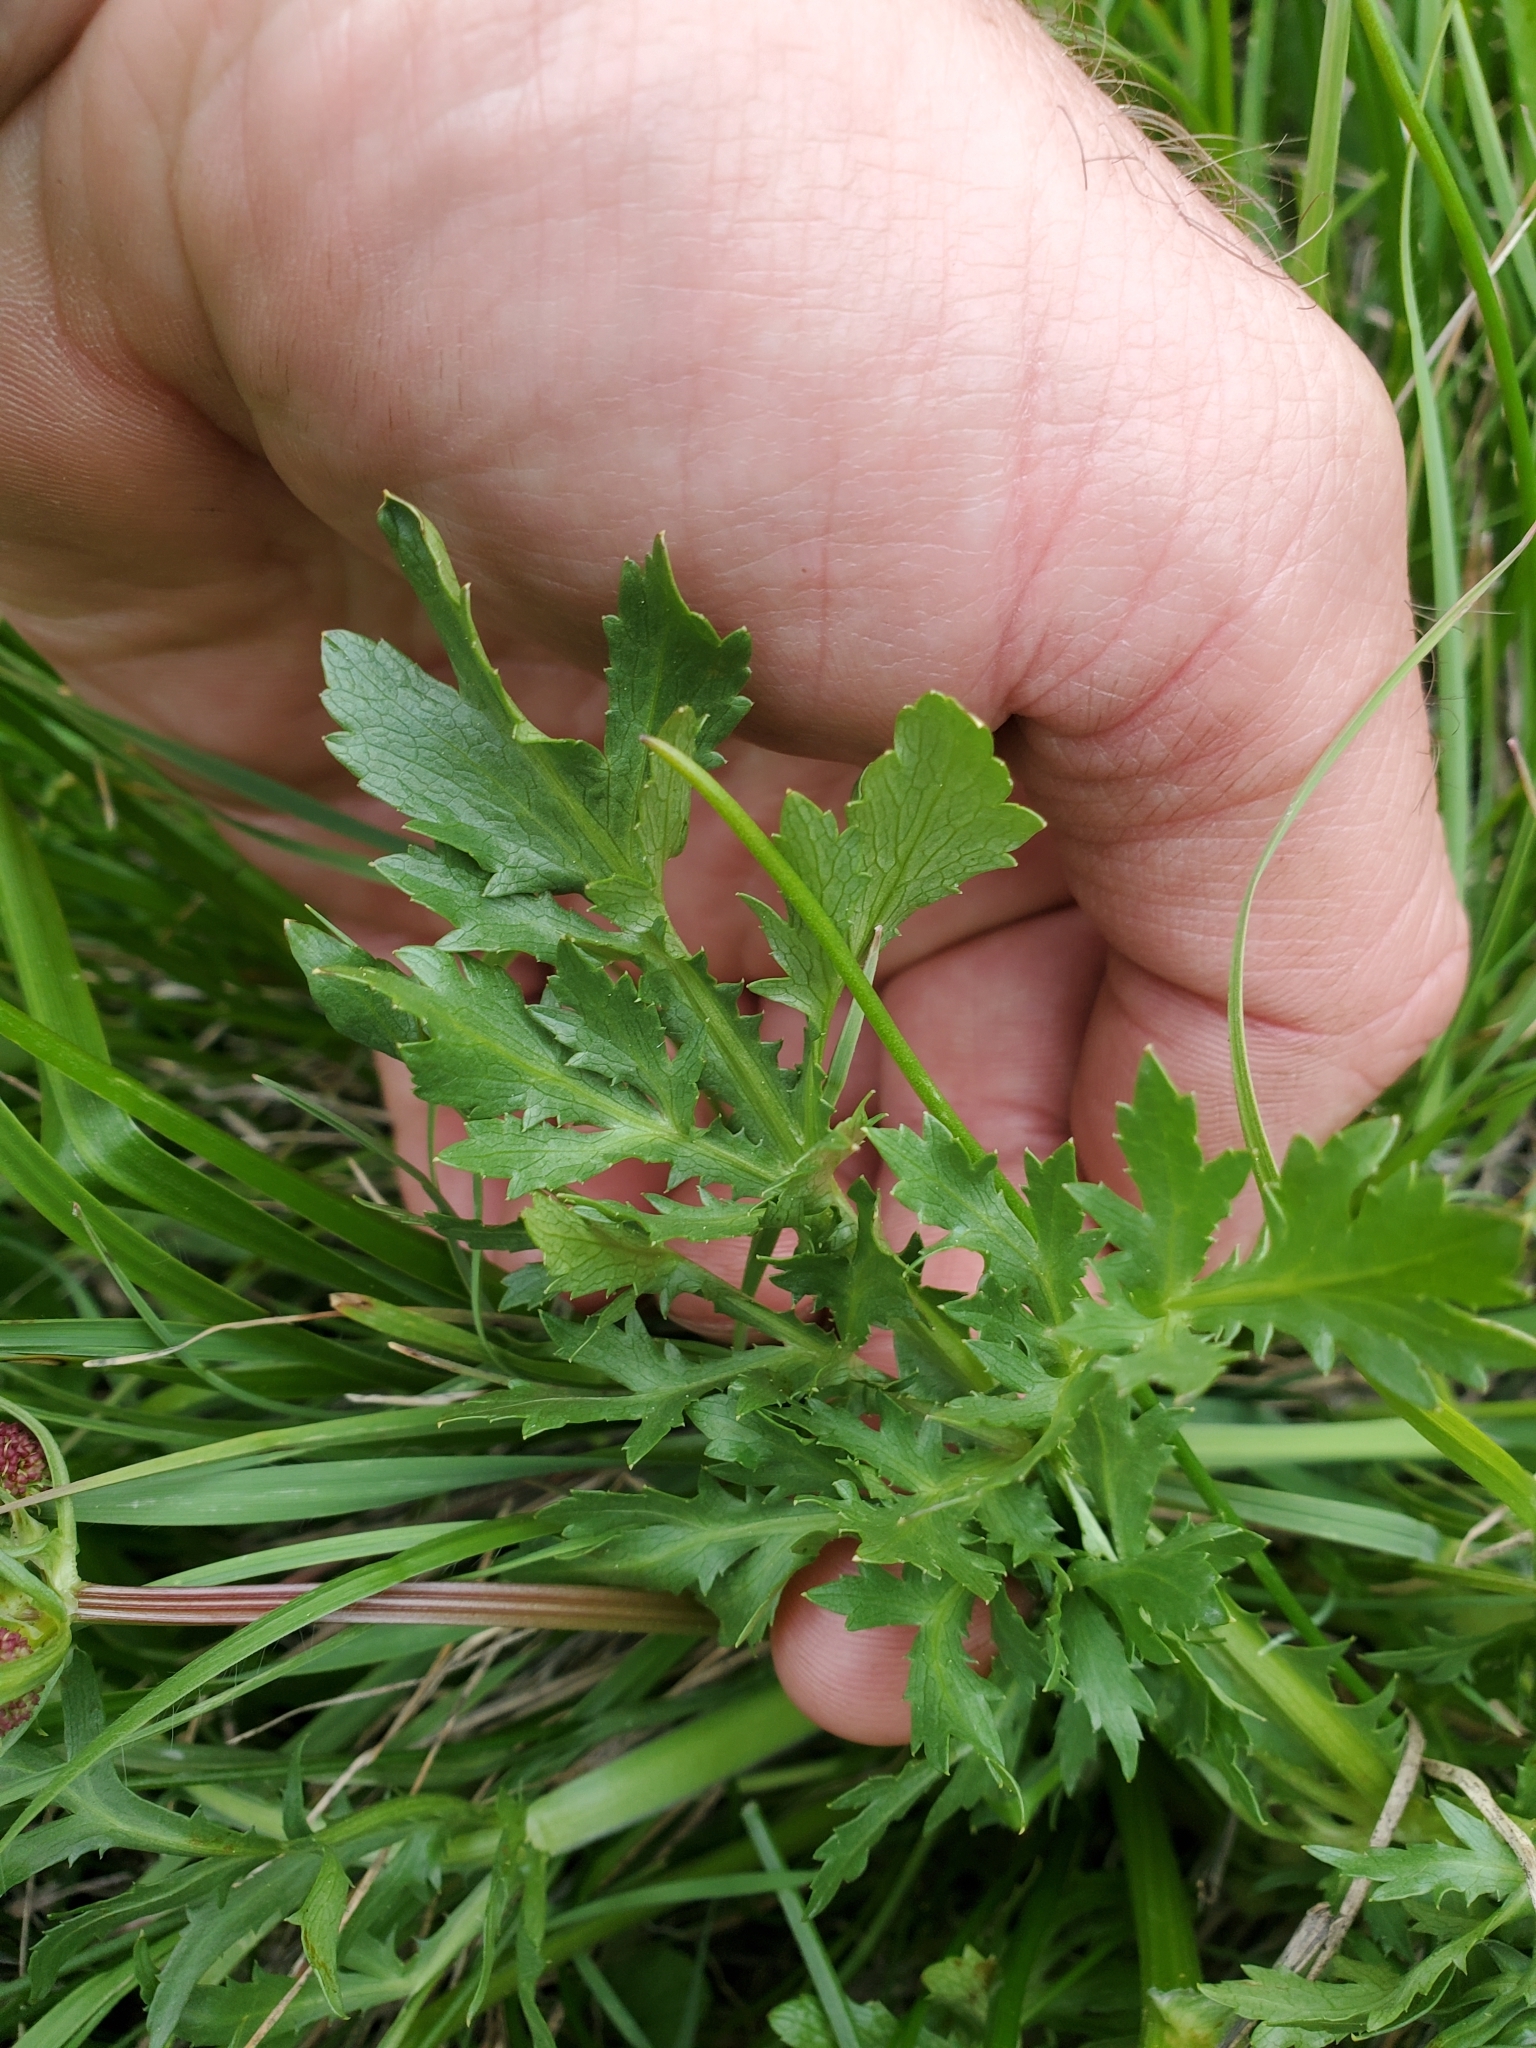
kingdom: Plantae
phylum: Tracheophyta
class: Magnoliopsida
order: Apiales
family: Apiaceae
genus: Sanicula
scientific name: Sanicula bipinnatifida
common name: Shoe-buttons
